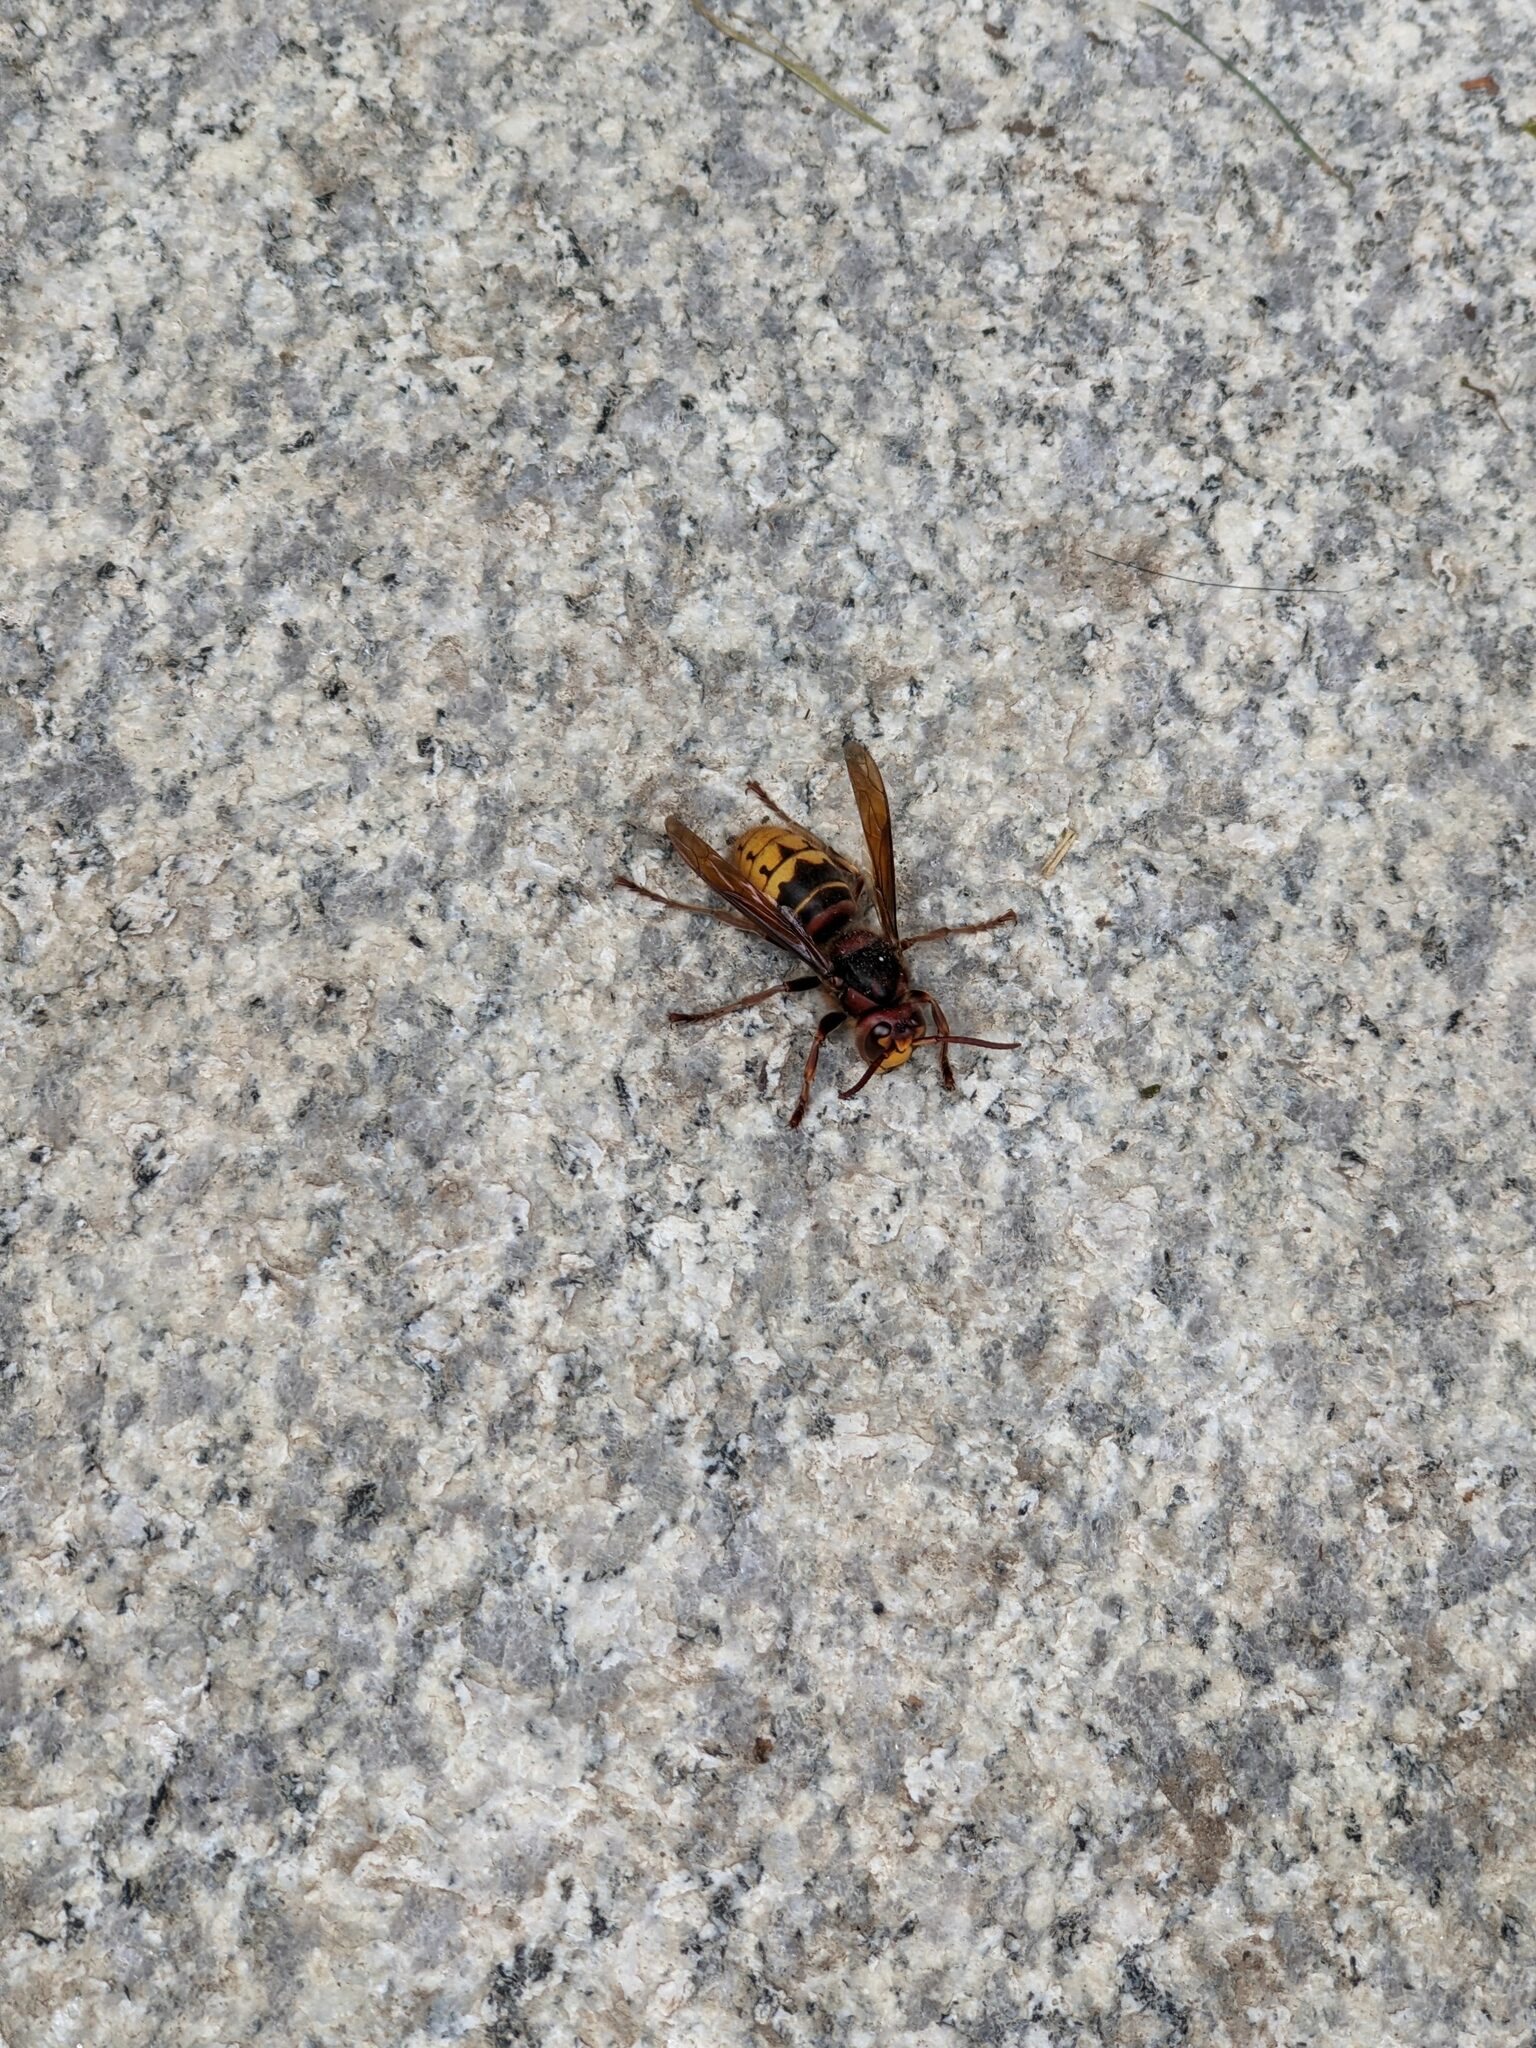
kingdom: Animalia
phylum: Arthropoda
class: Insecta
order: Hymenoptera
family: Vespidae
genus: Vespa
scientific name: Vespa crabro
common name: Hornet
